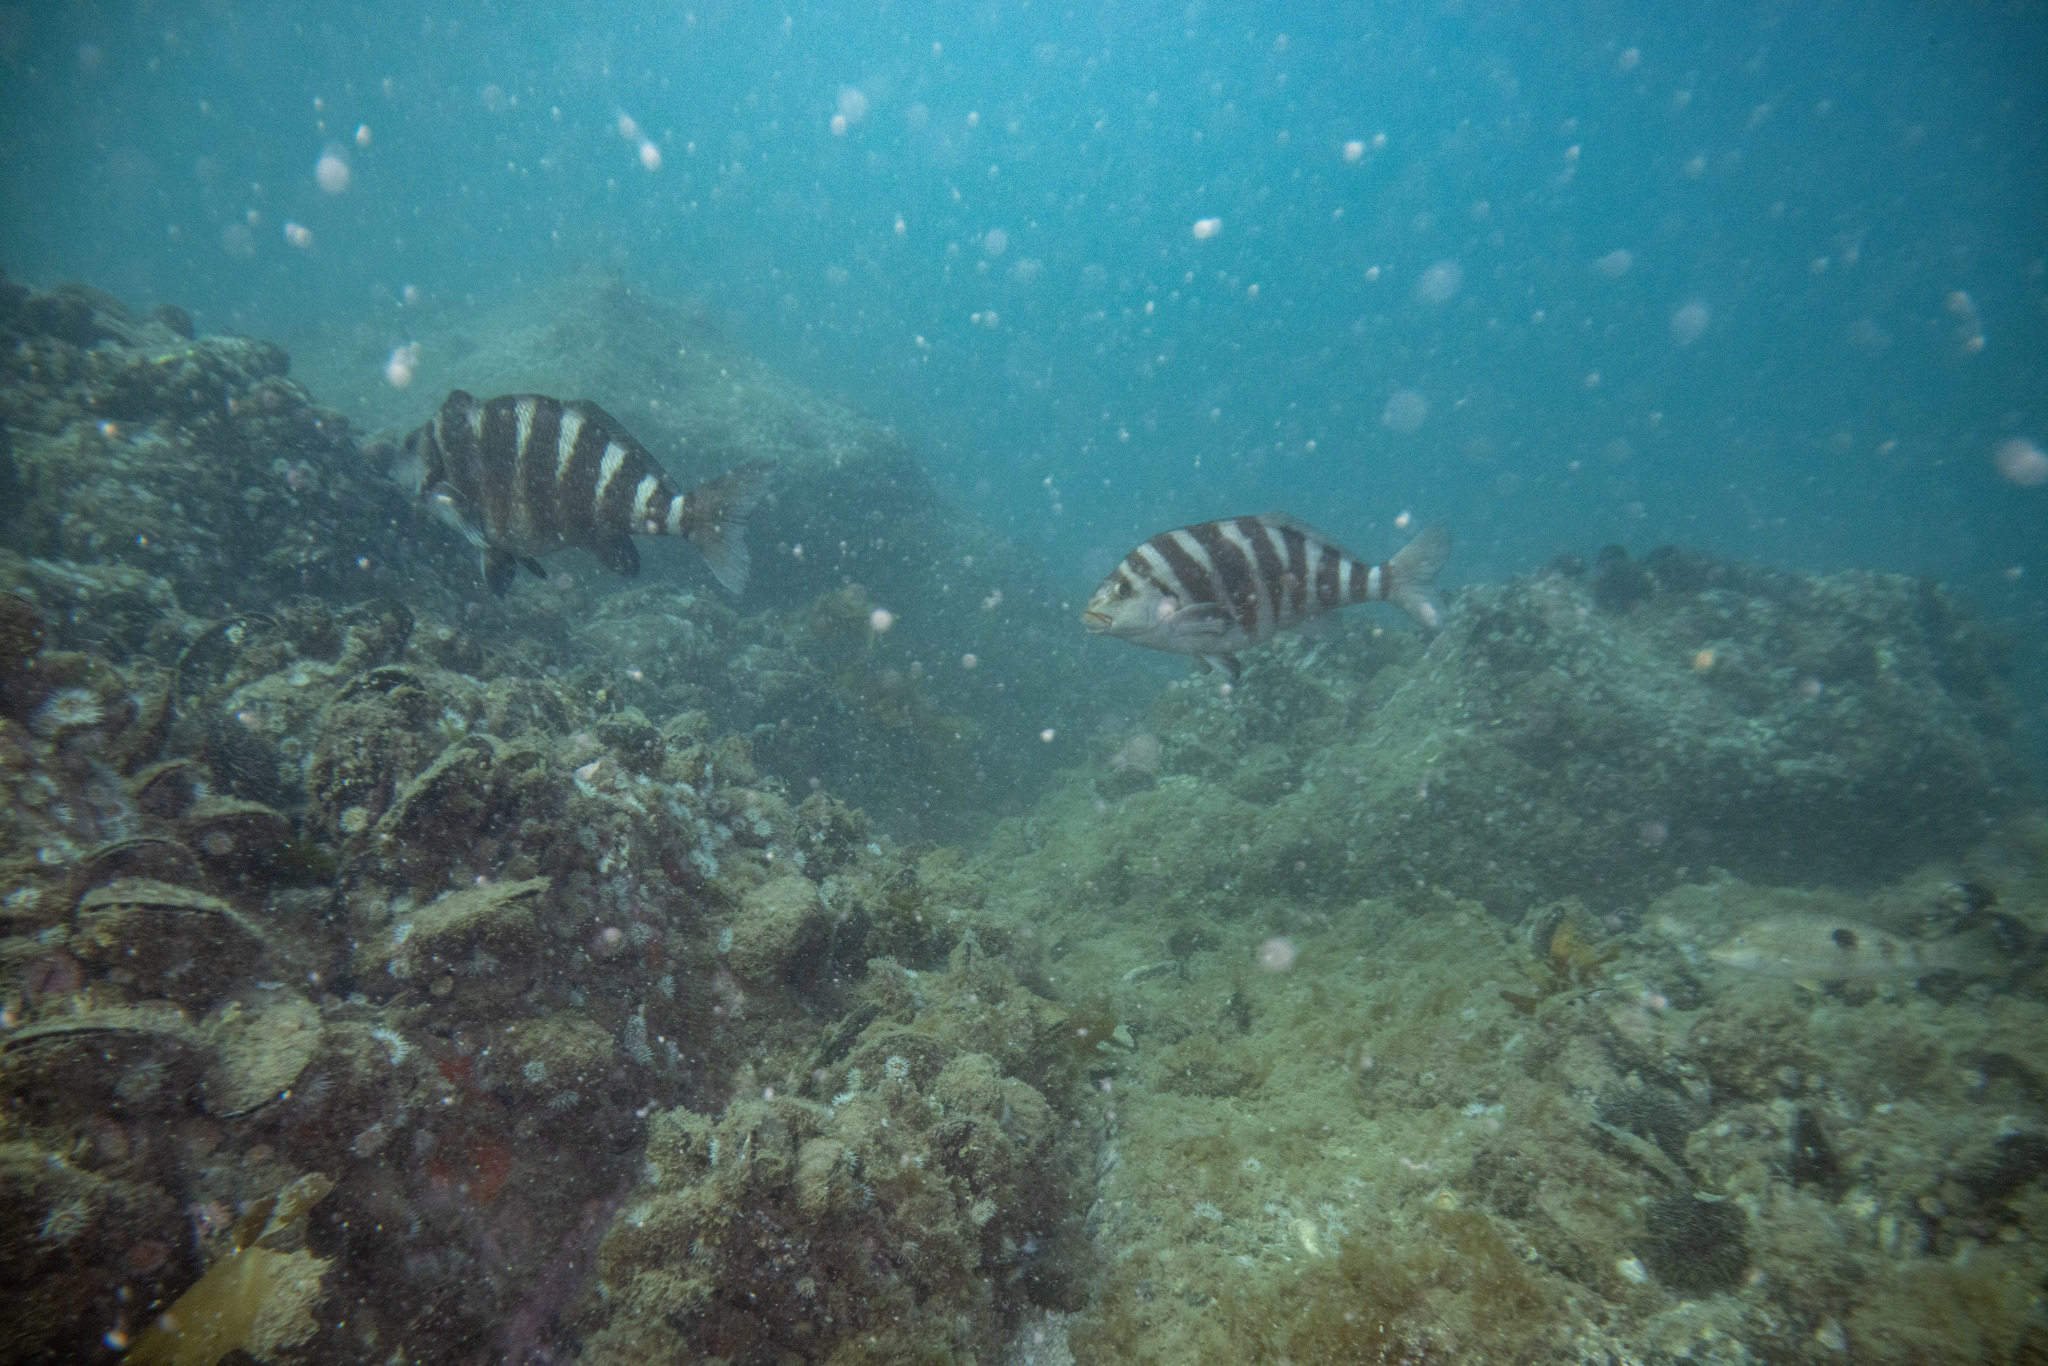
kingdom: Animalia
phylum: Chordata
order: Perciformes
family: Cheilodactylidae
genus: Cheilodactylus
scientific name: Cheilodactylus spectabilis
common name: Red moki
